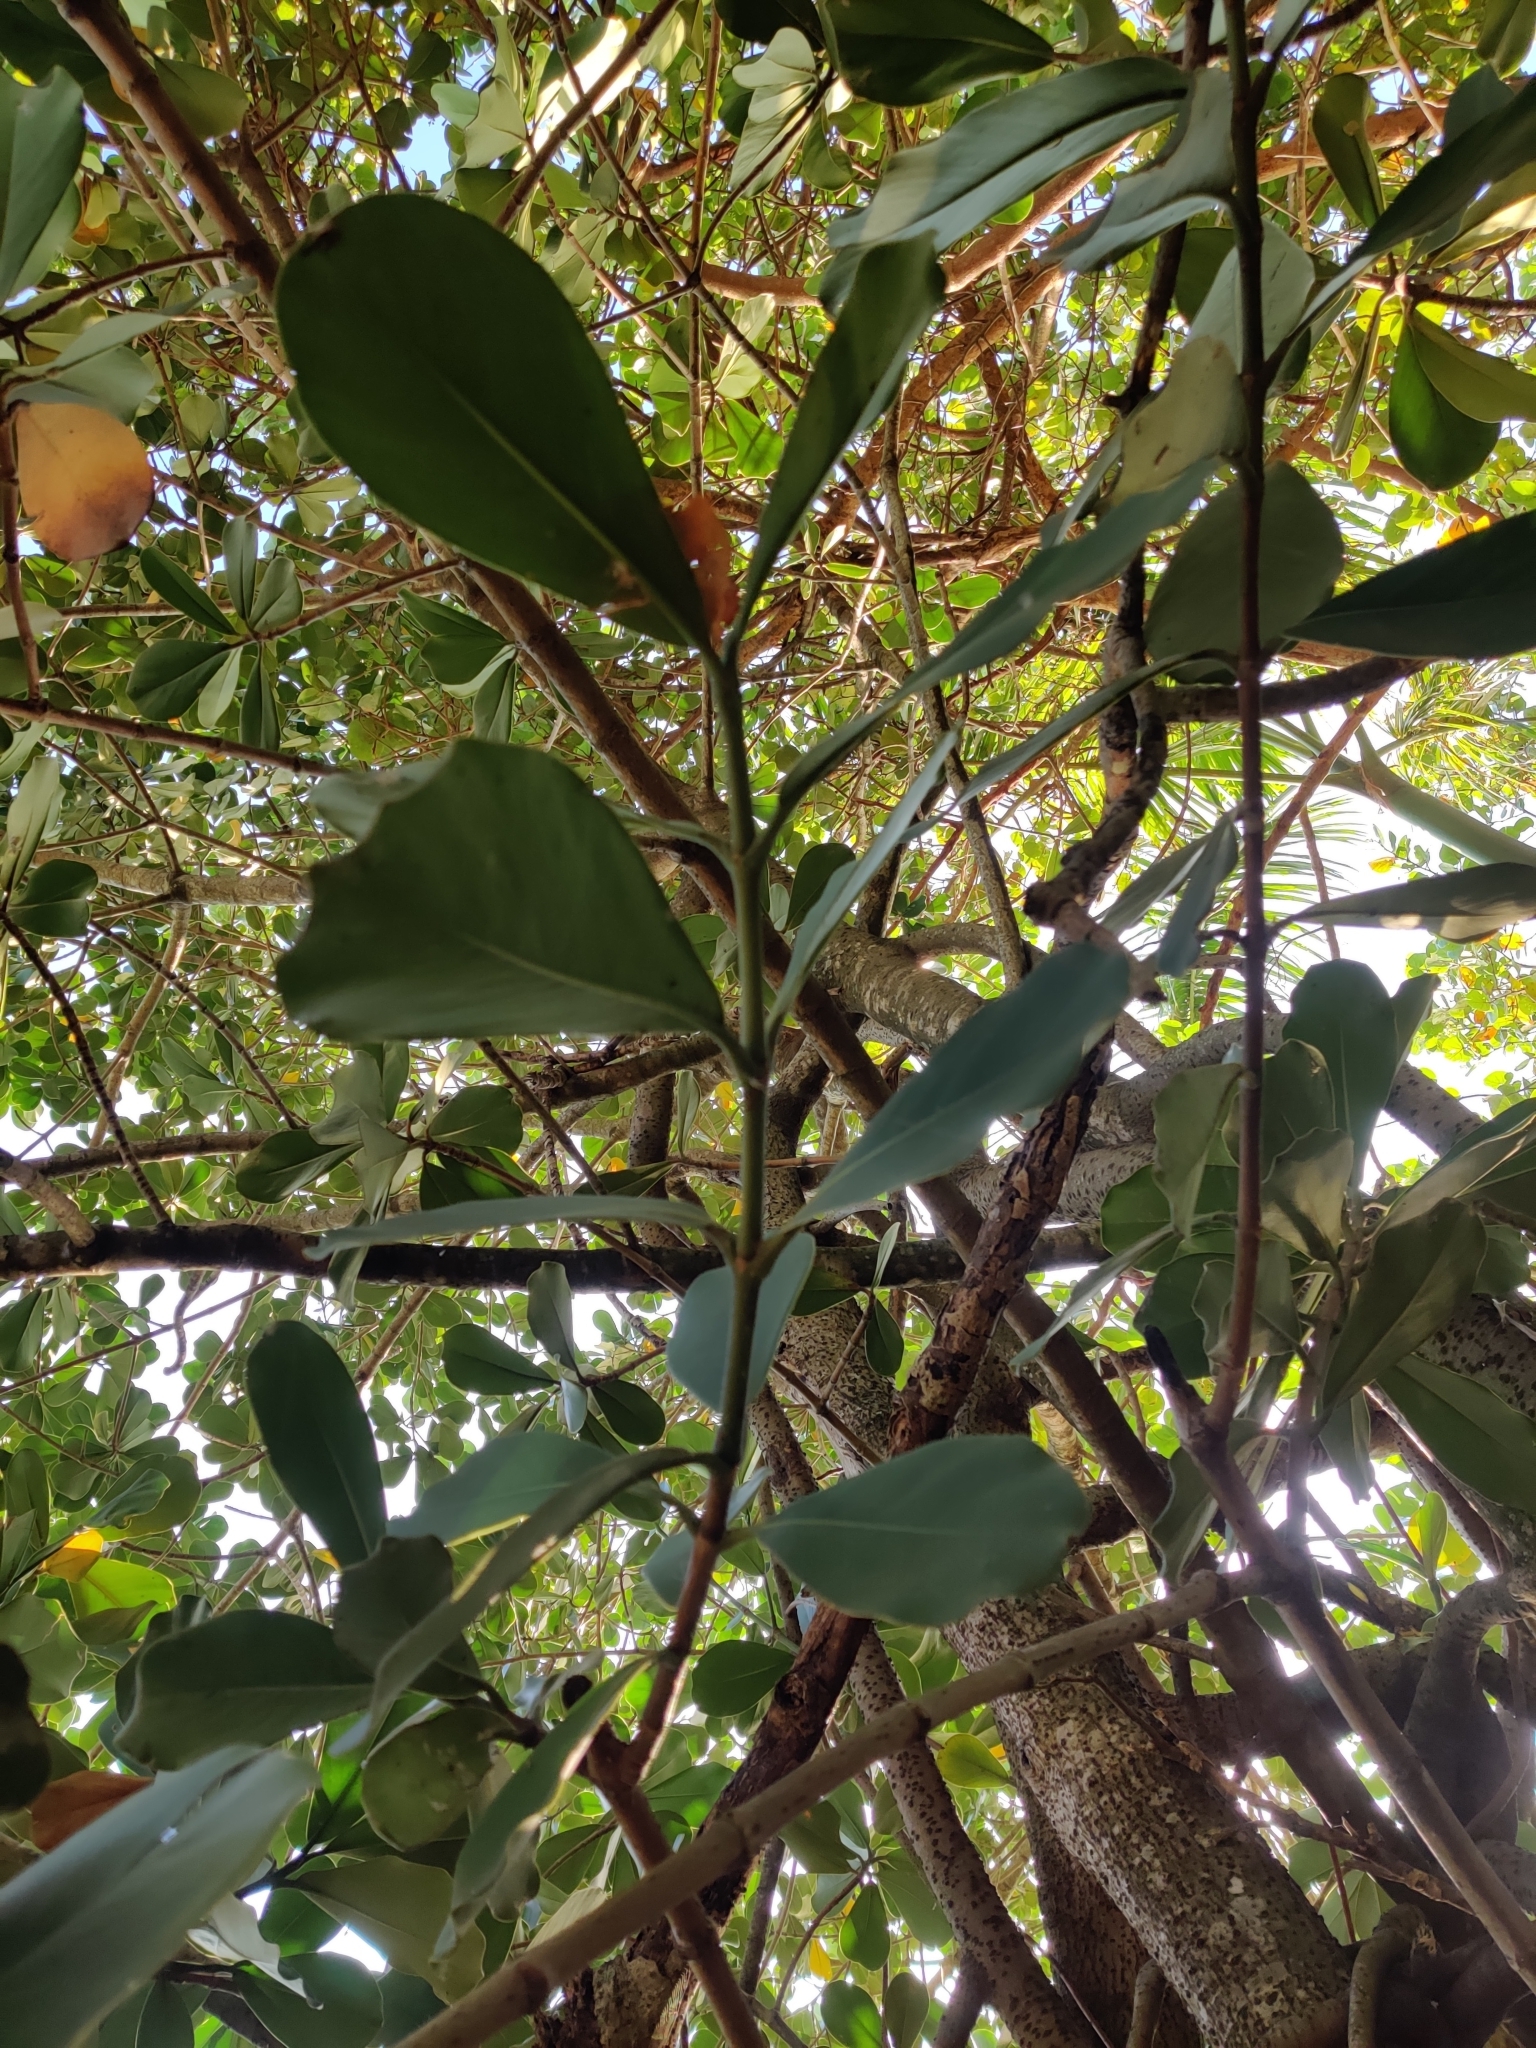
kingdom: Plantae
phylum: Tracheophyta
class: Magnoliopsida
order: Malpighiales
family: Clusiaceae
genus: Clusia
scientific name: Clusia rosea
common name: Scotch attorney
